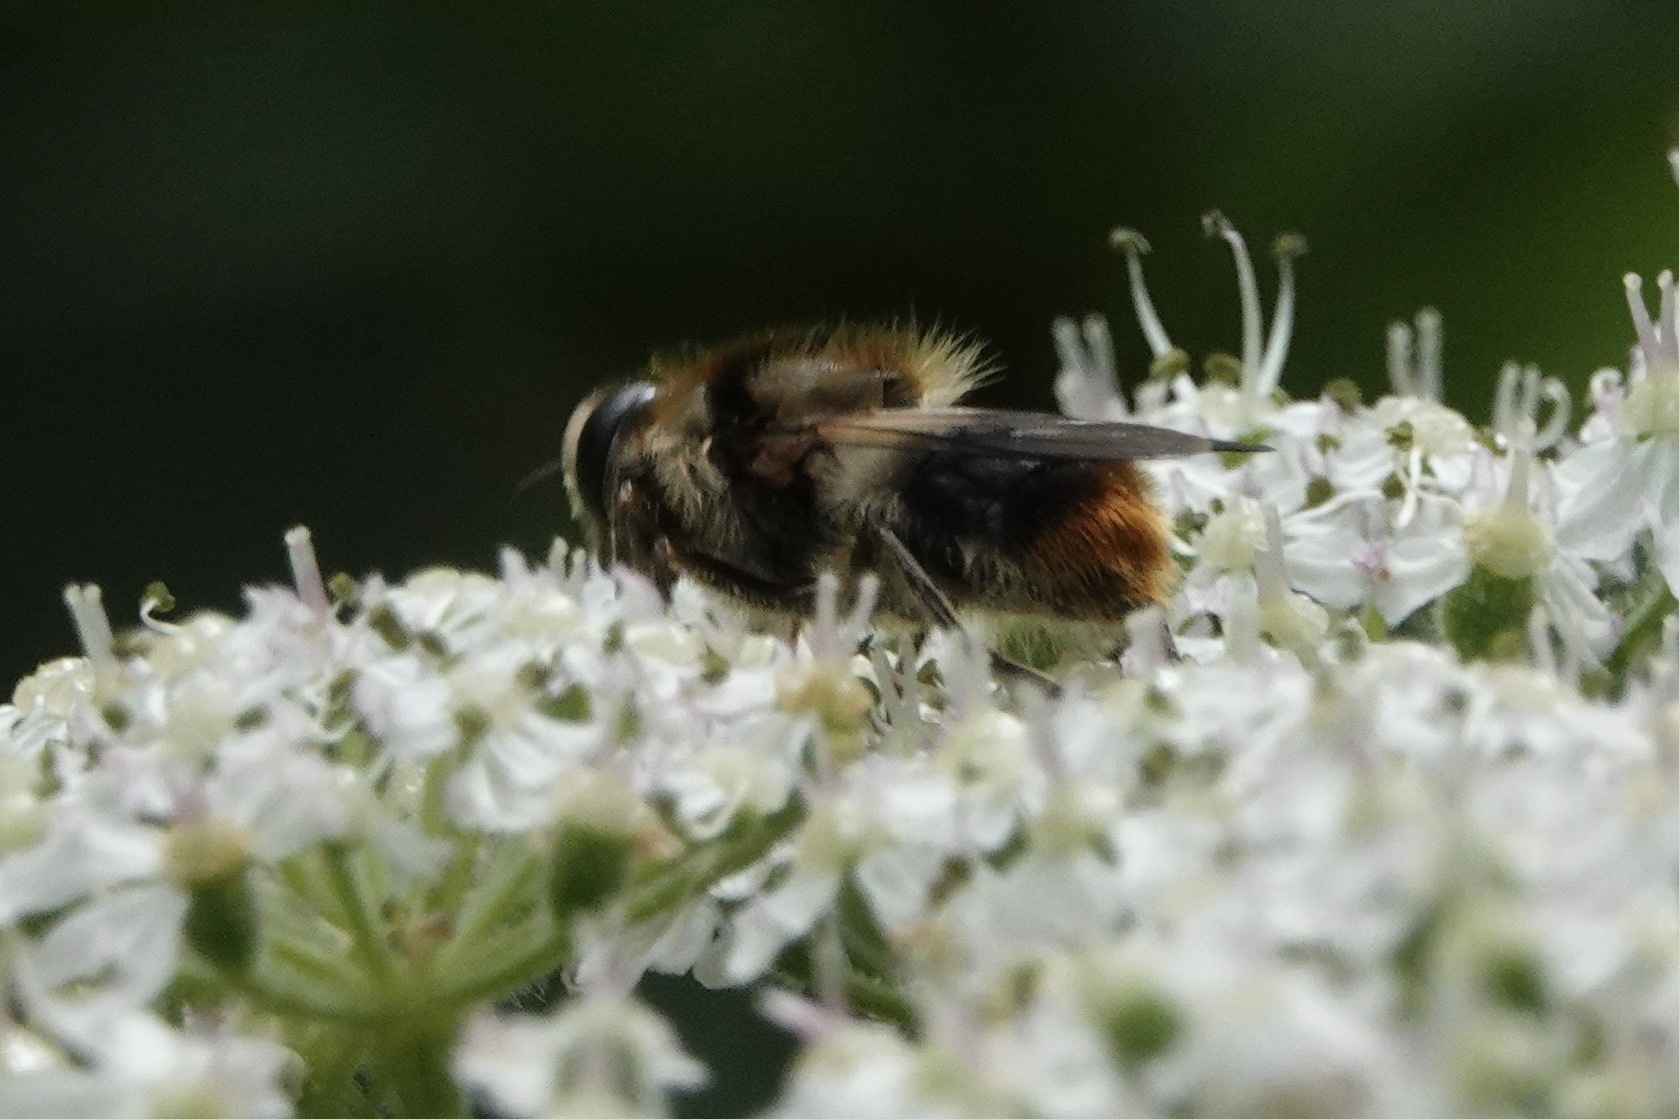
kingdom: Animalia
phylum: Arthropoda
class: Insecta
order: Diptera
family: Syrphidae
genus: Cheilosia
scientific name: Cheilosia illustrata
